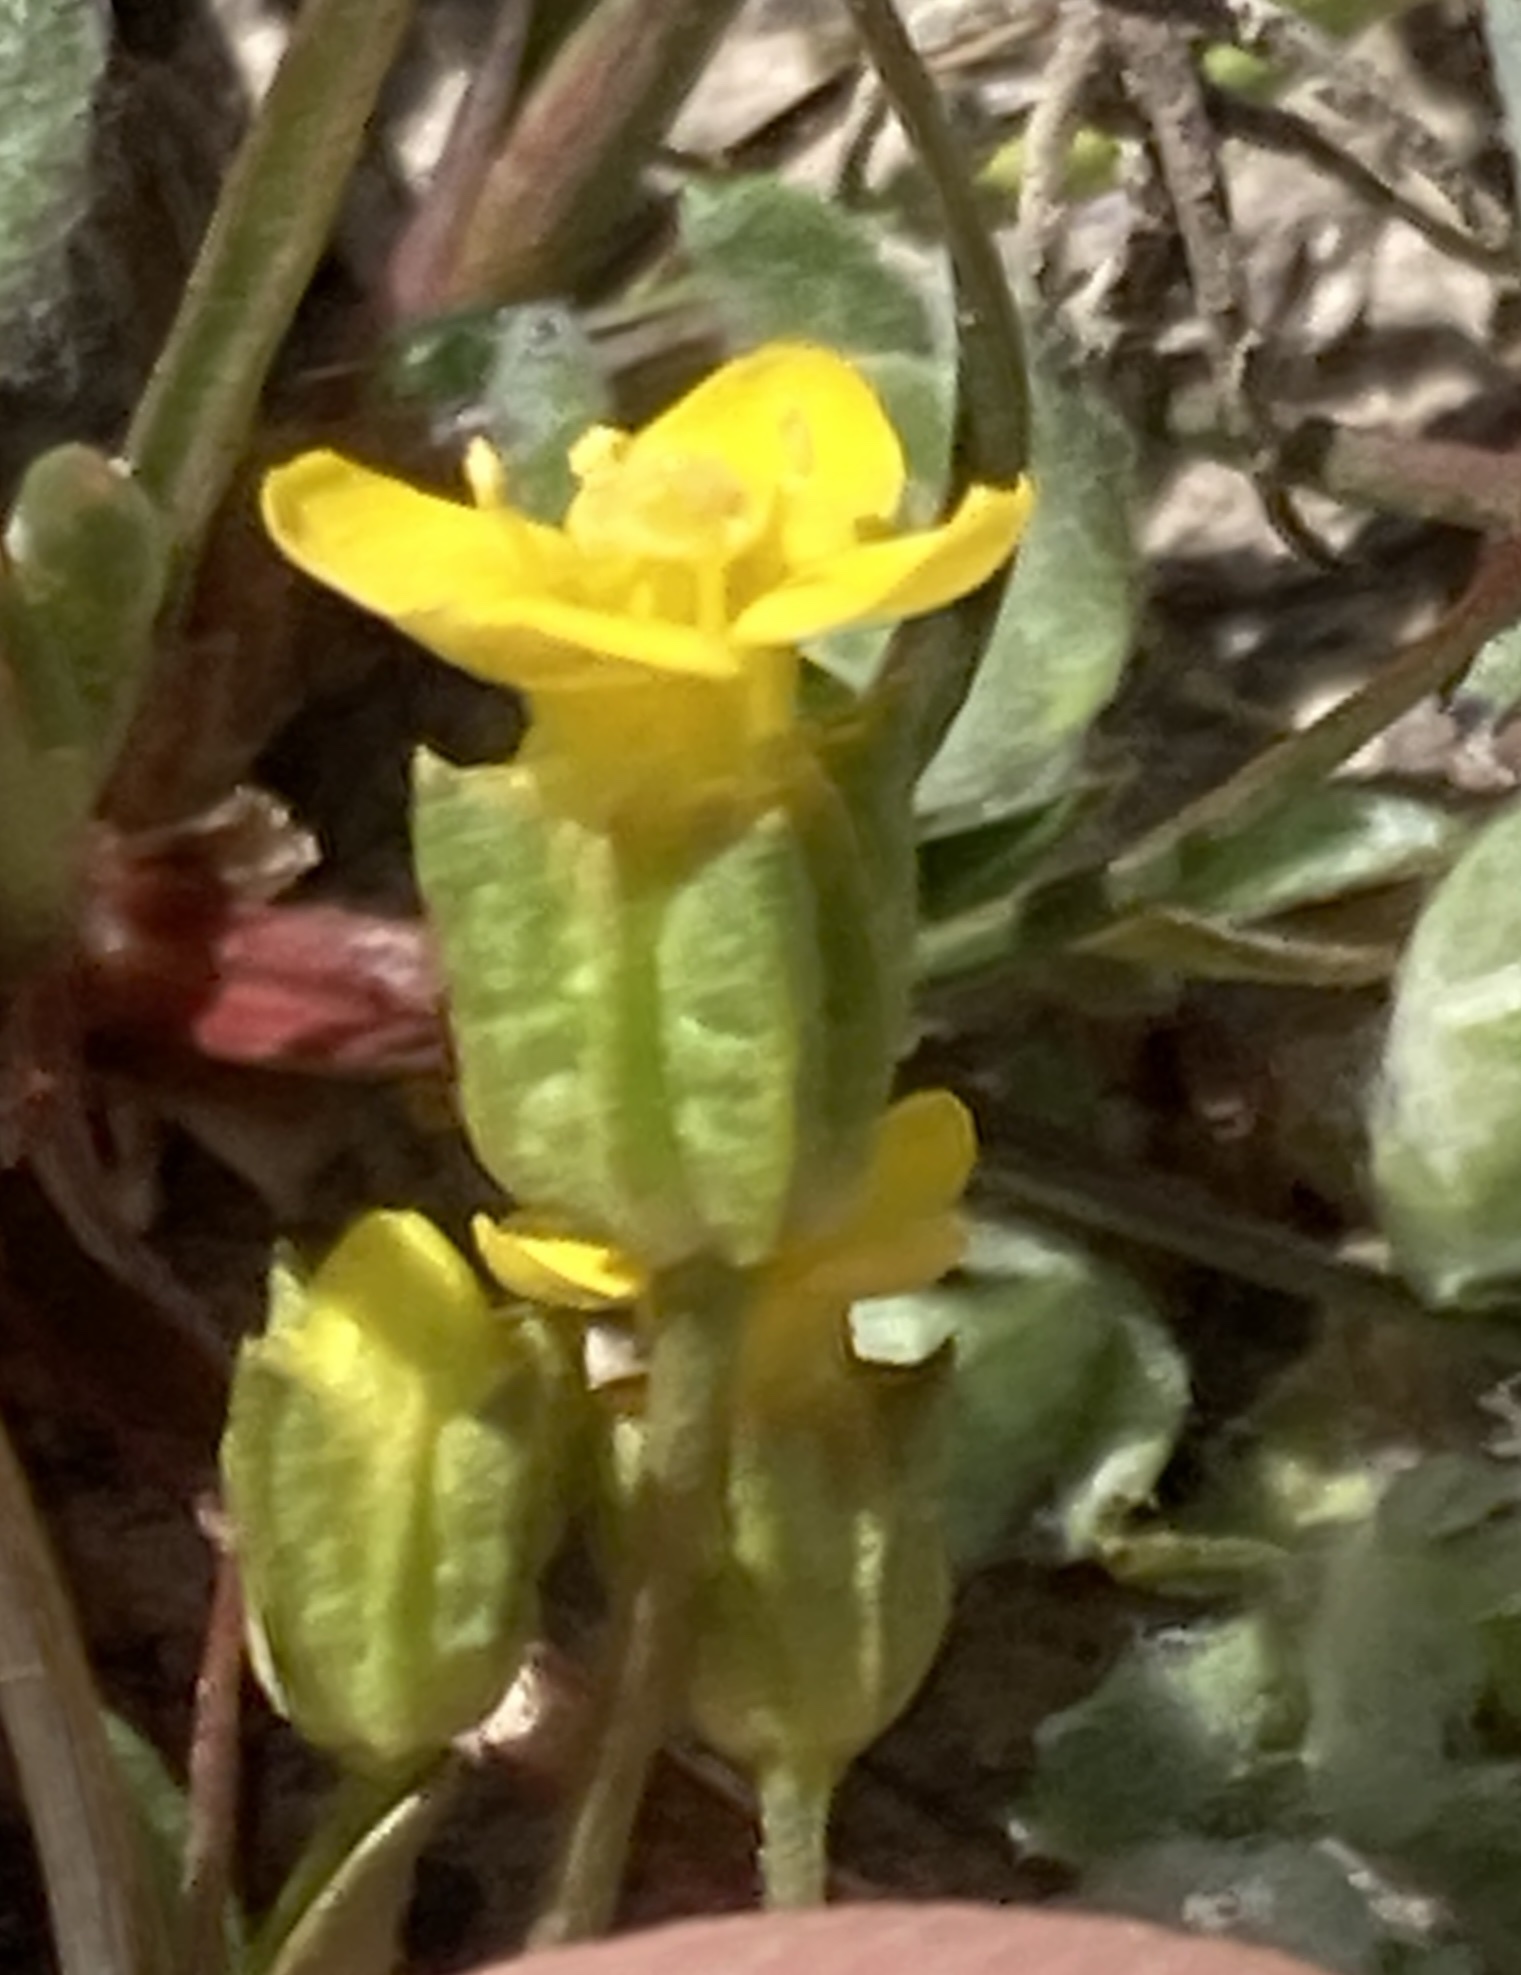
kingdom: Plantae
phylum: Tracheophyta
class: Magnoliopsida
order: Gentianales
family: Gentianaceae
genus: Microcala
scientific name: Microcala quadrangularis
